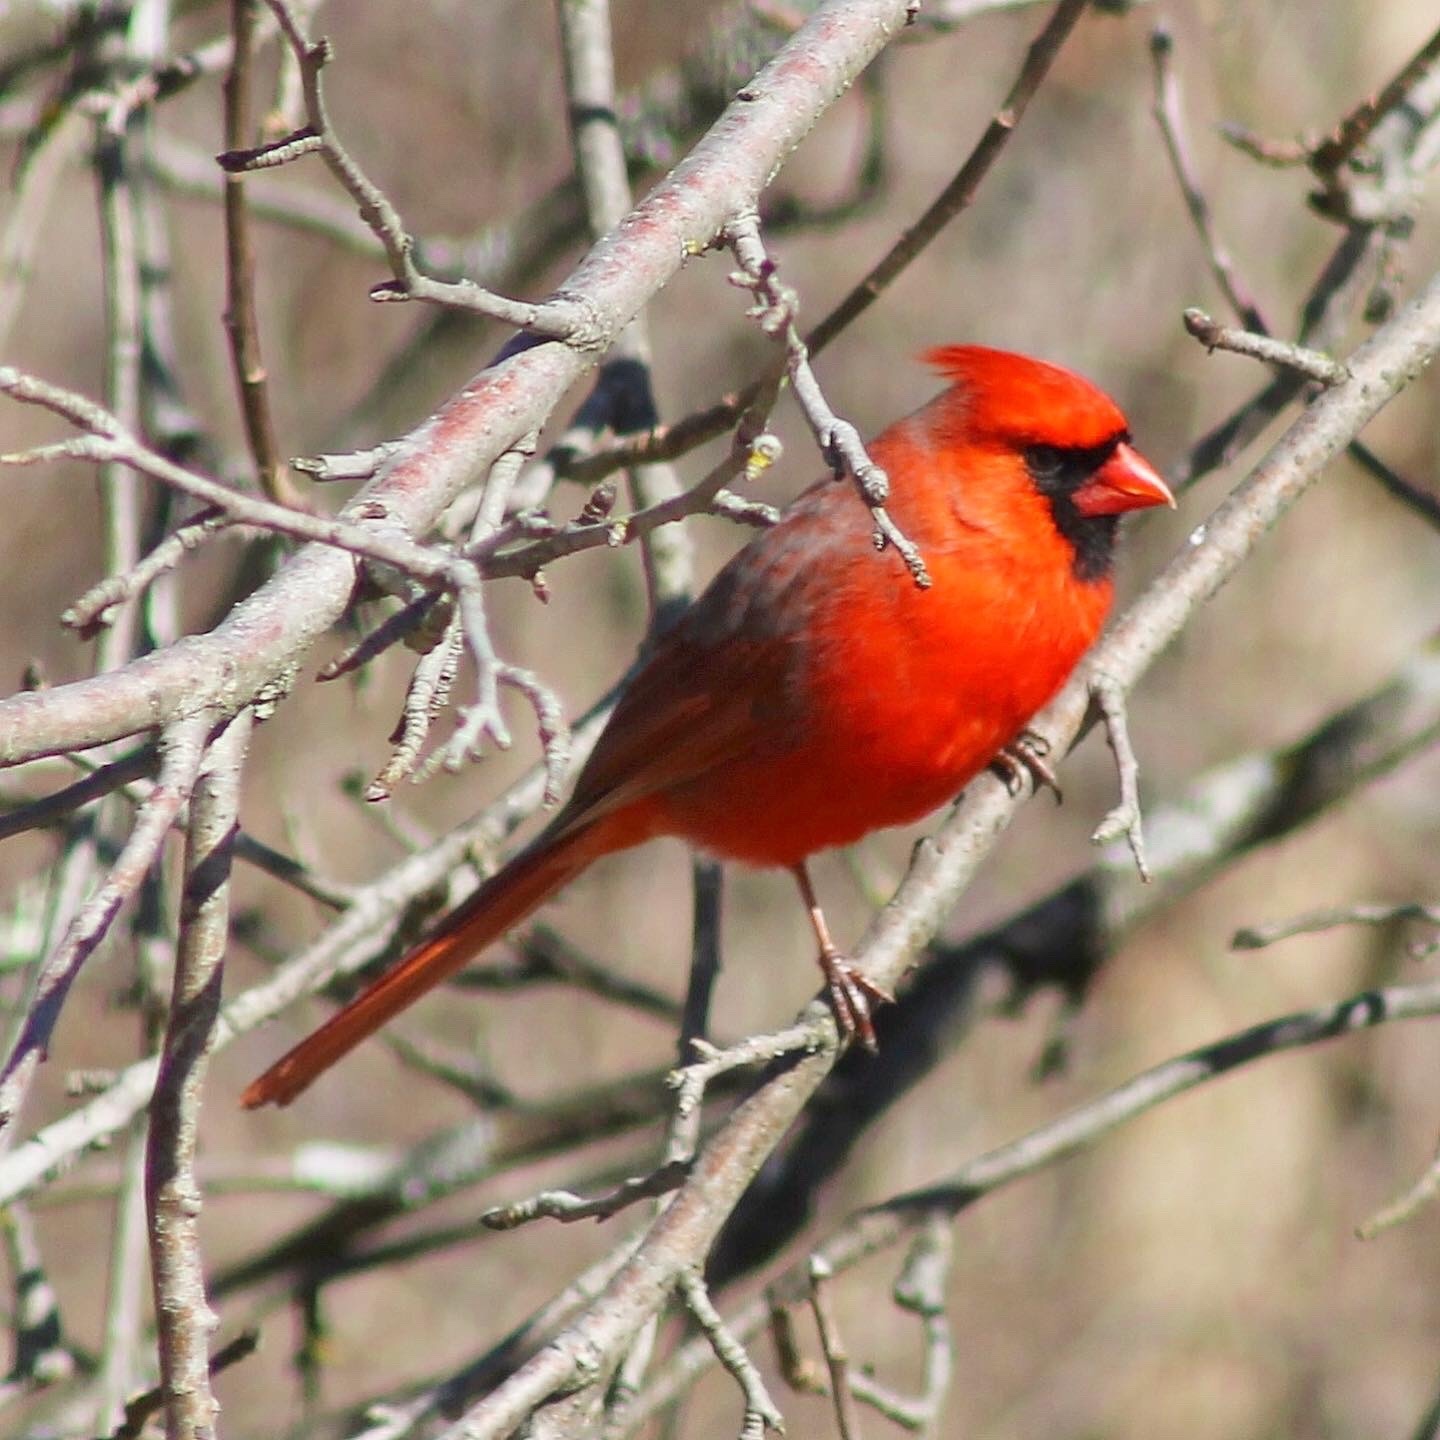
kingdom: Animalia
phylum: Chordata
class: Aves
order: Passeriformes
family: Cardinalidae
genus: Cardinalis
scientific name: Cardinalis cardinalis
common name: Northern cardinal
